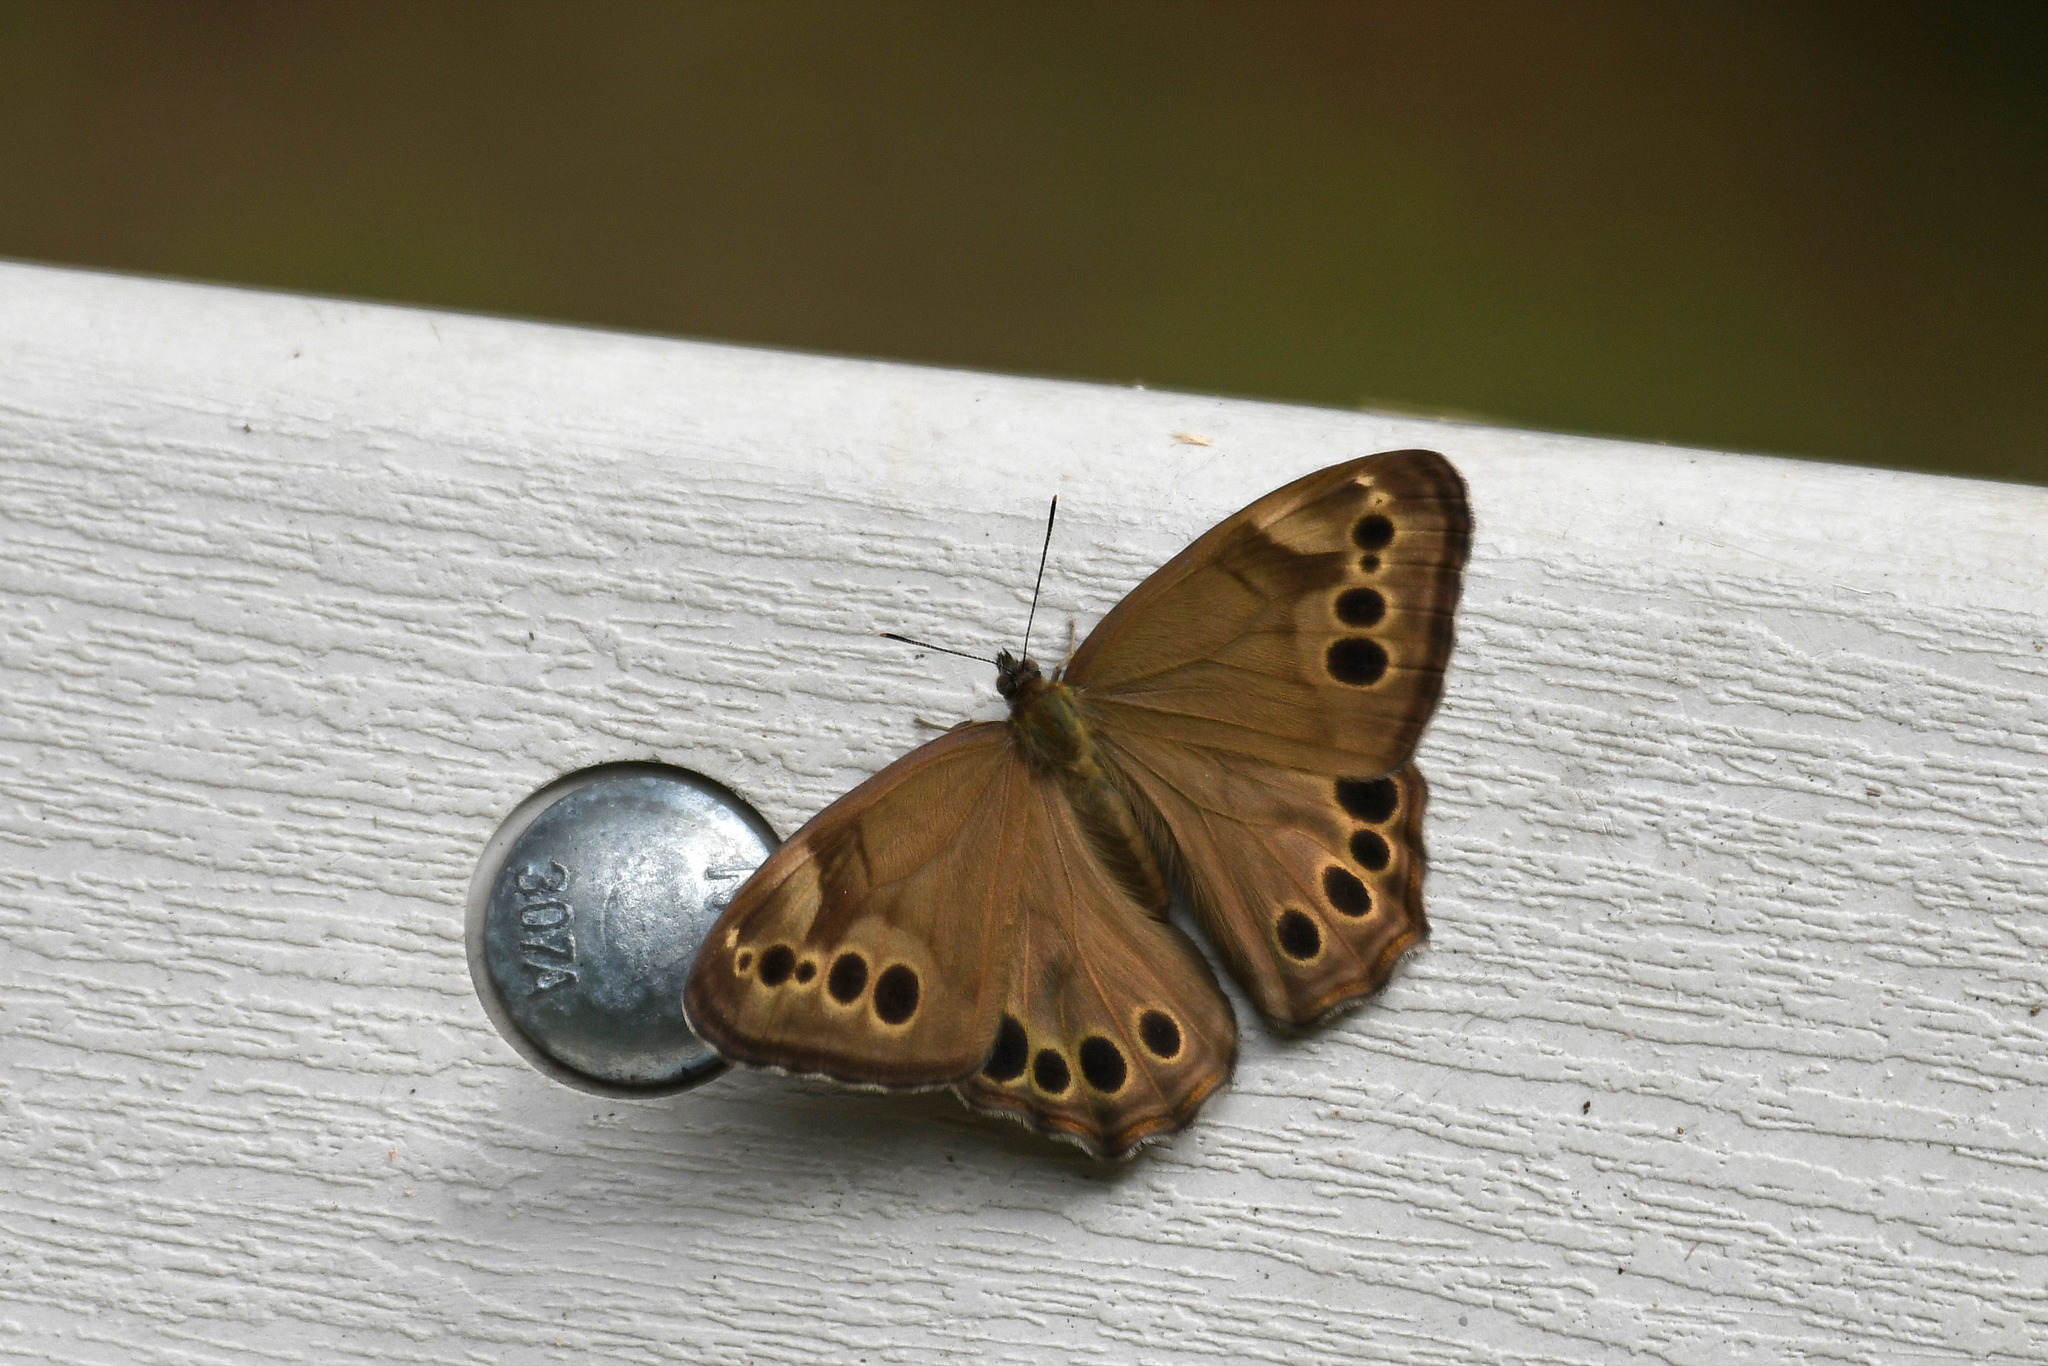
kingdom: Animalia
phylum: Arthropoda
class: Insecta
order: Lepidoptera
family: Nymphalidae
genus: Lethe
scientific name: Lethe anthedon
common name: Northern pearly-eye
